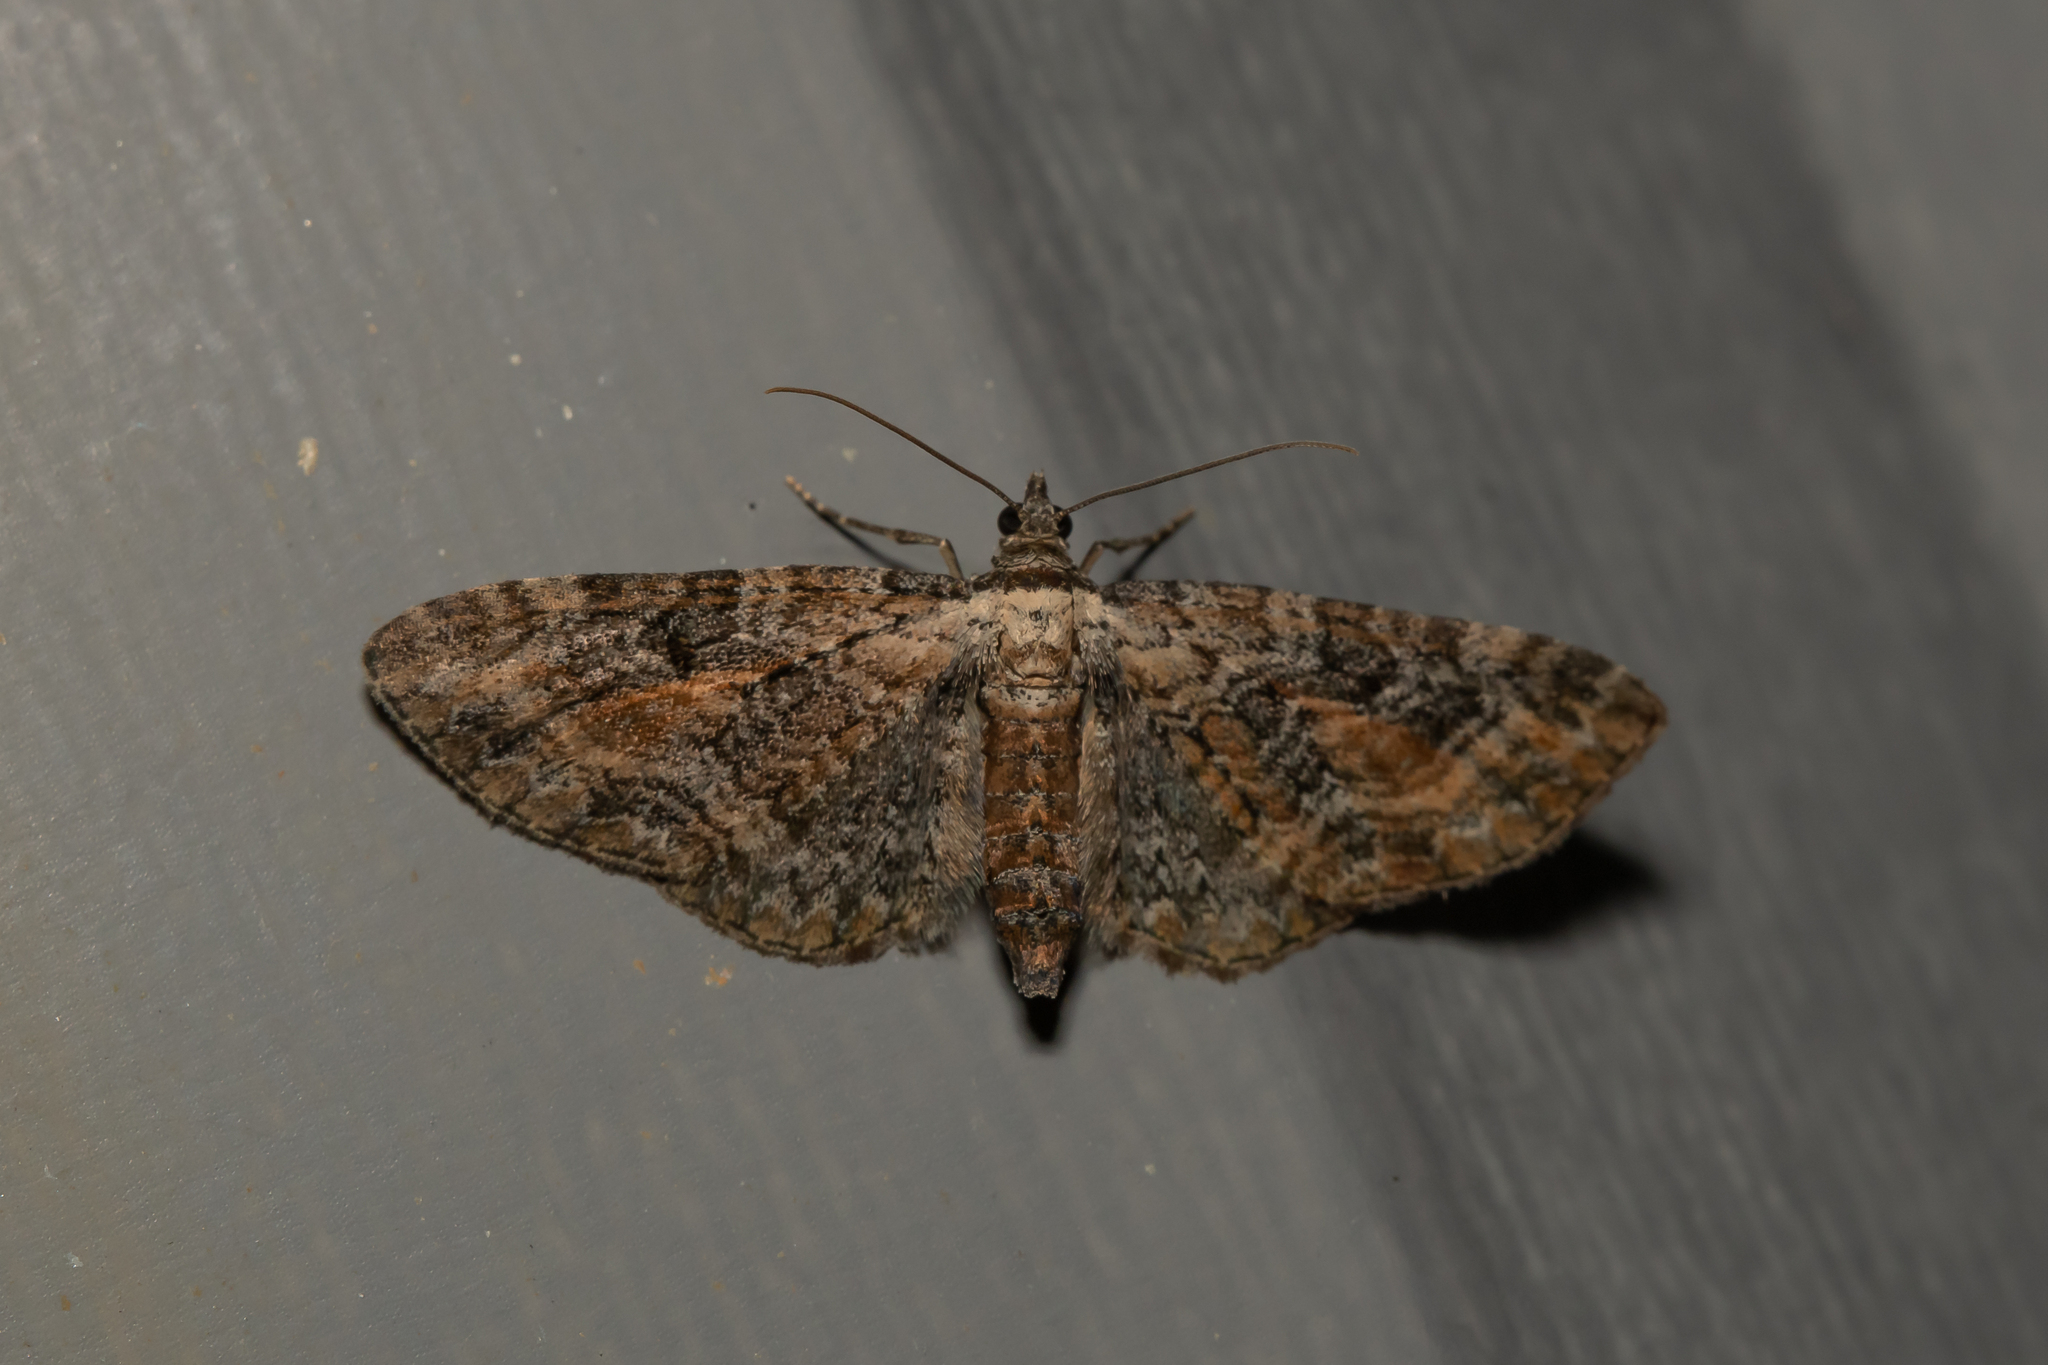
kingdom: Animalia
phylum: Arthropoda
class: Insecta
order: Lepidoptera
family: Geometridae
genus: Eupithecia
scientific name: Eupithecia icterata
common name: Tawny speckled pug
